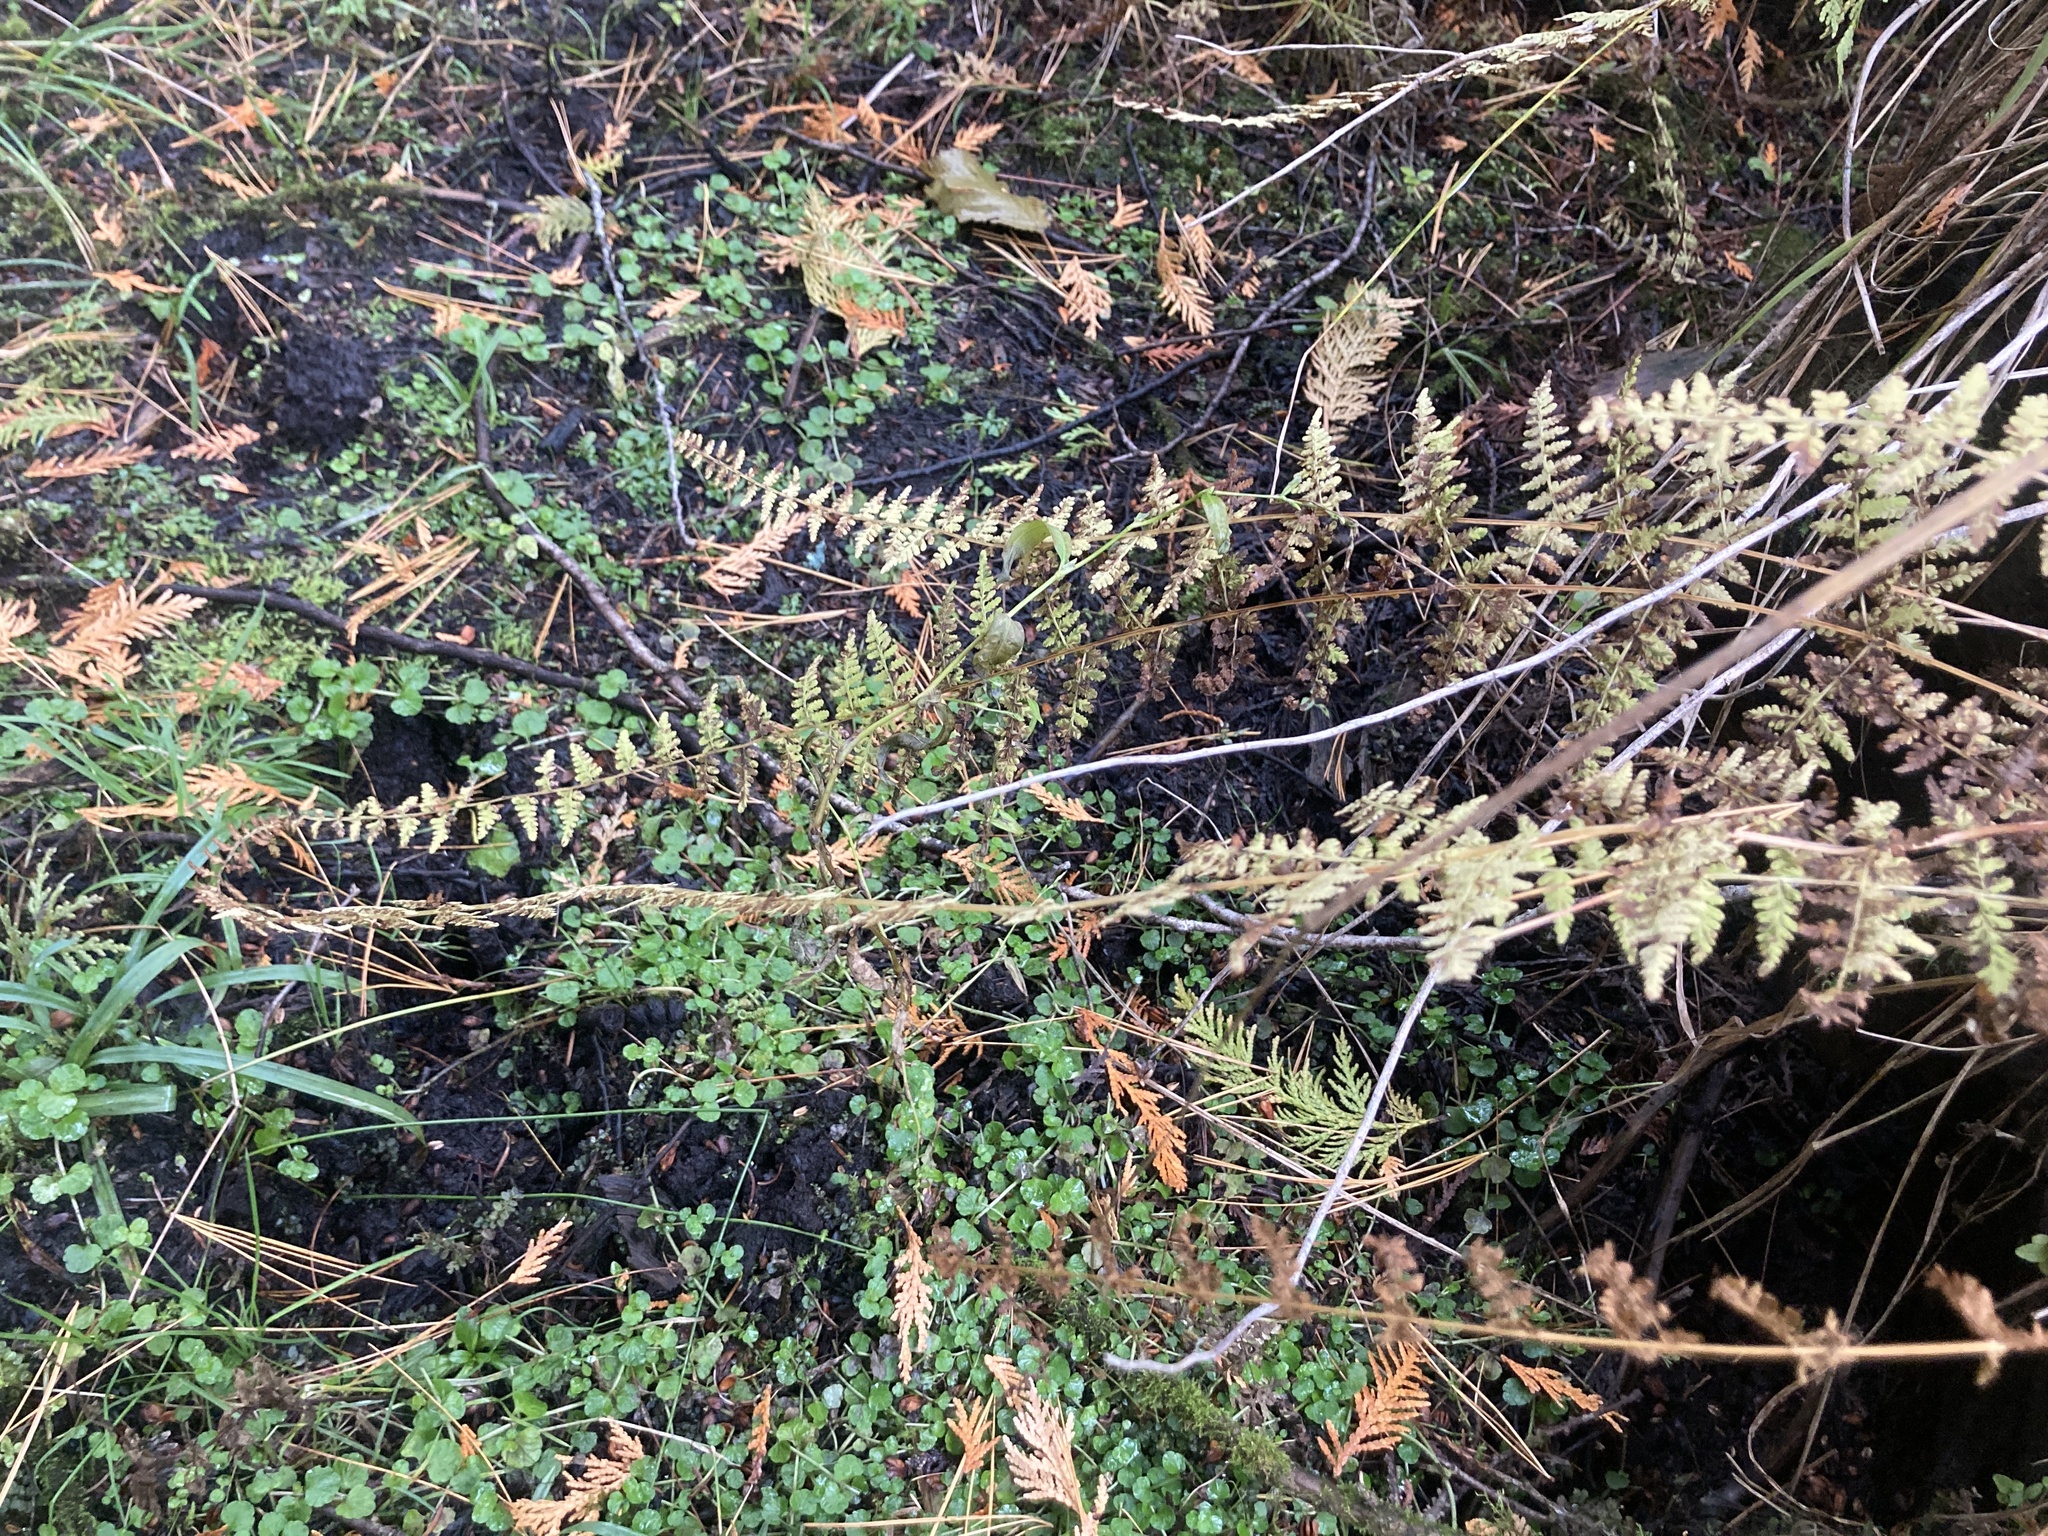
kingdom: Plantae
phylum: Tracheophyta
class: Polypodiopsida
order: Polypodiales
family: Cystopteridaceae
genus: Cystopteris
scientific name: Cystopteris bulbifera
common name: Bulblet bladder fern
